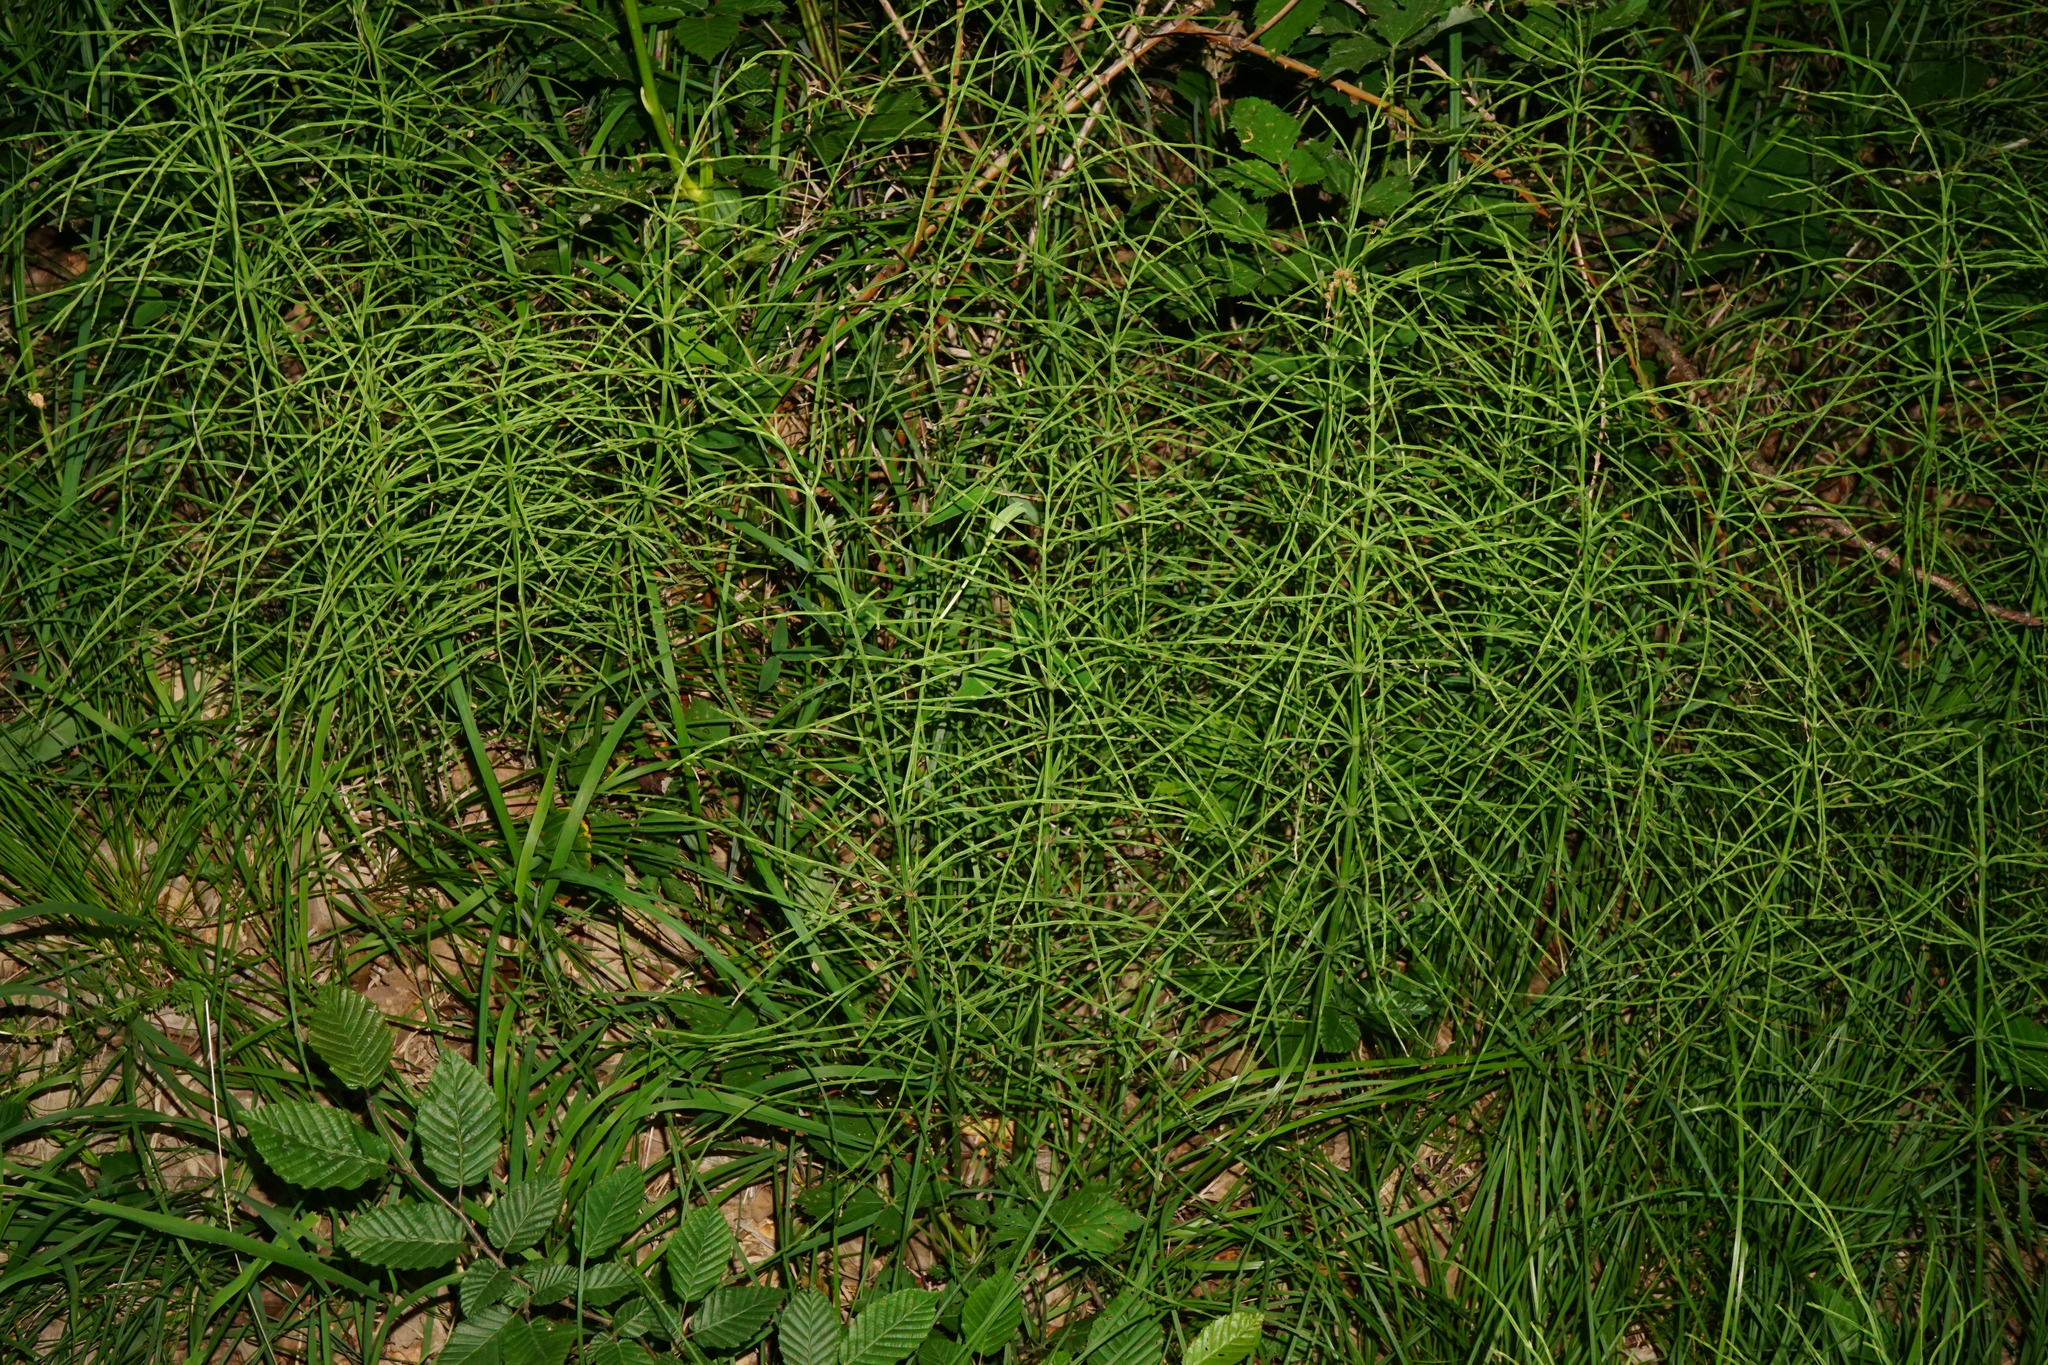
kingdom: Plantae
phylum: Tracheophyta
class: Polypodiopsida
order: Equisetales
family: Equisetaceae
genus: Equisetum
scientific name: Equisetum arvense
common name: Field horsetail
